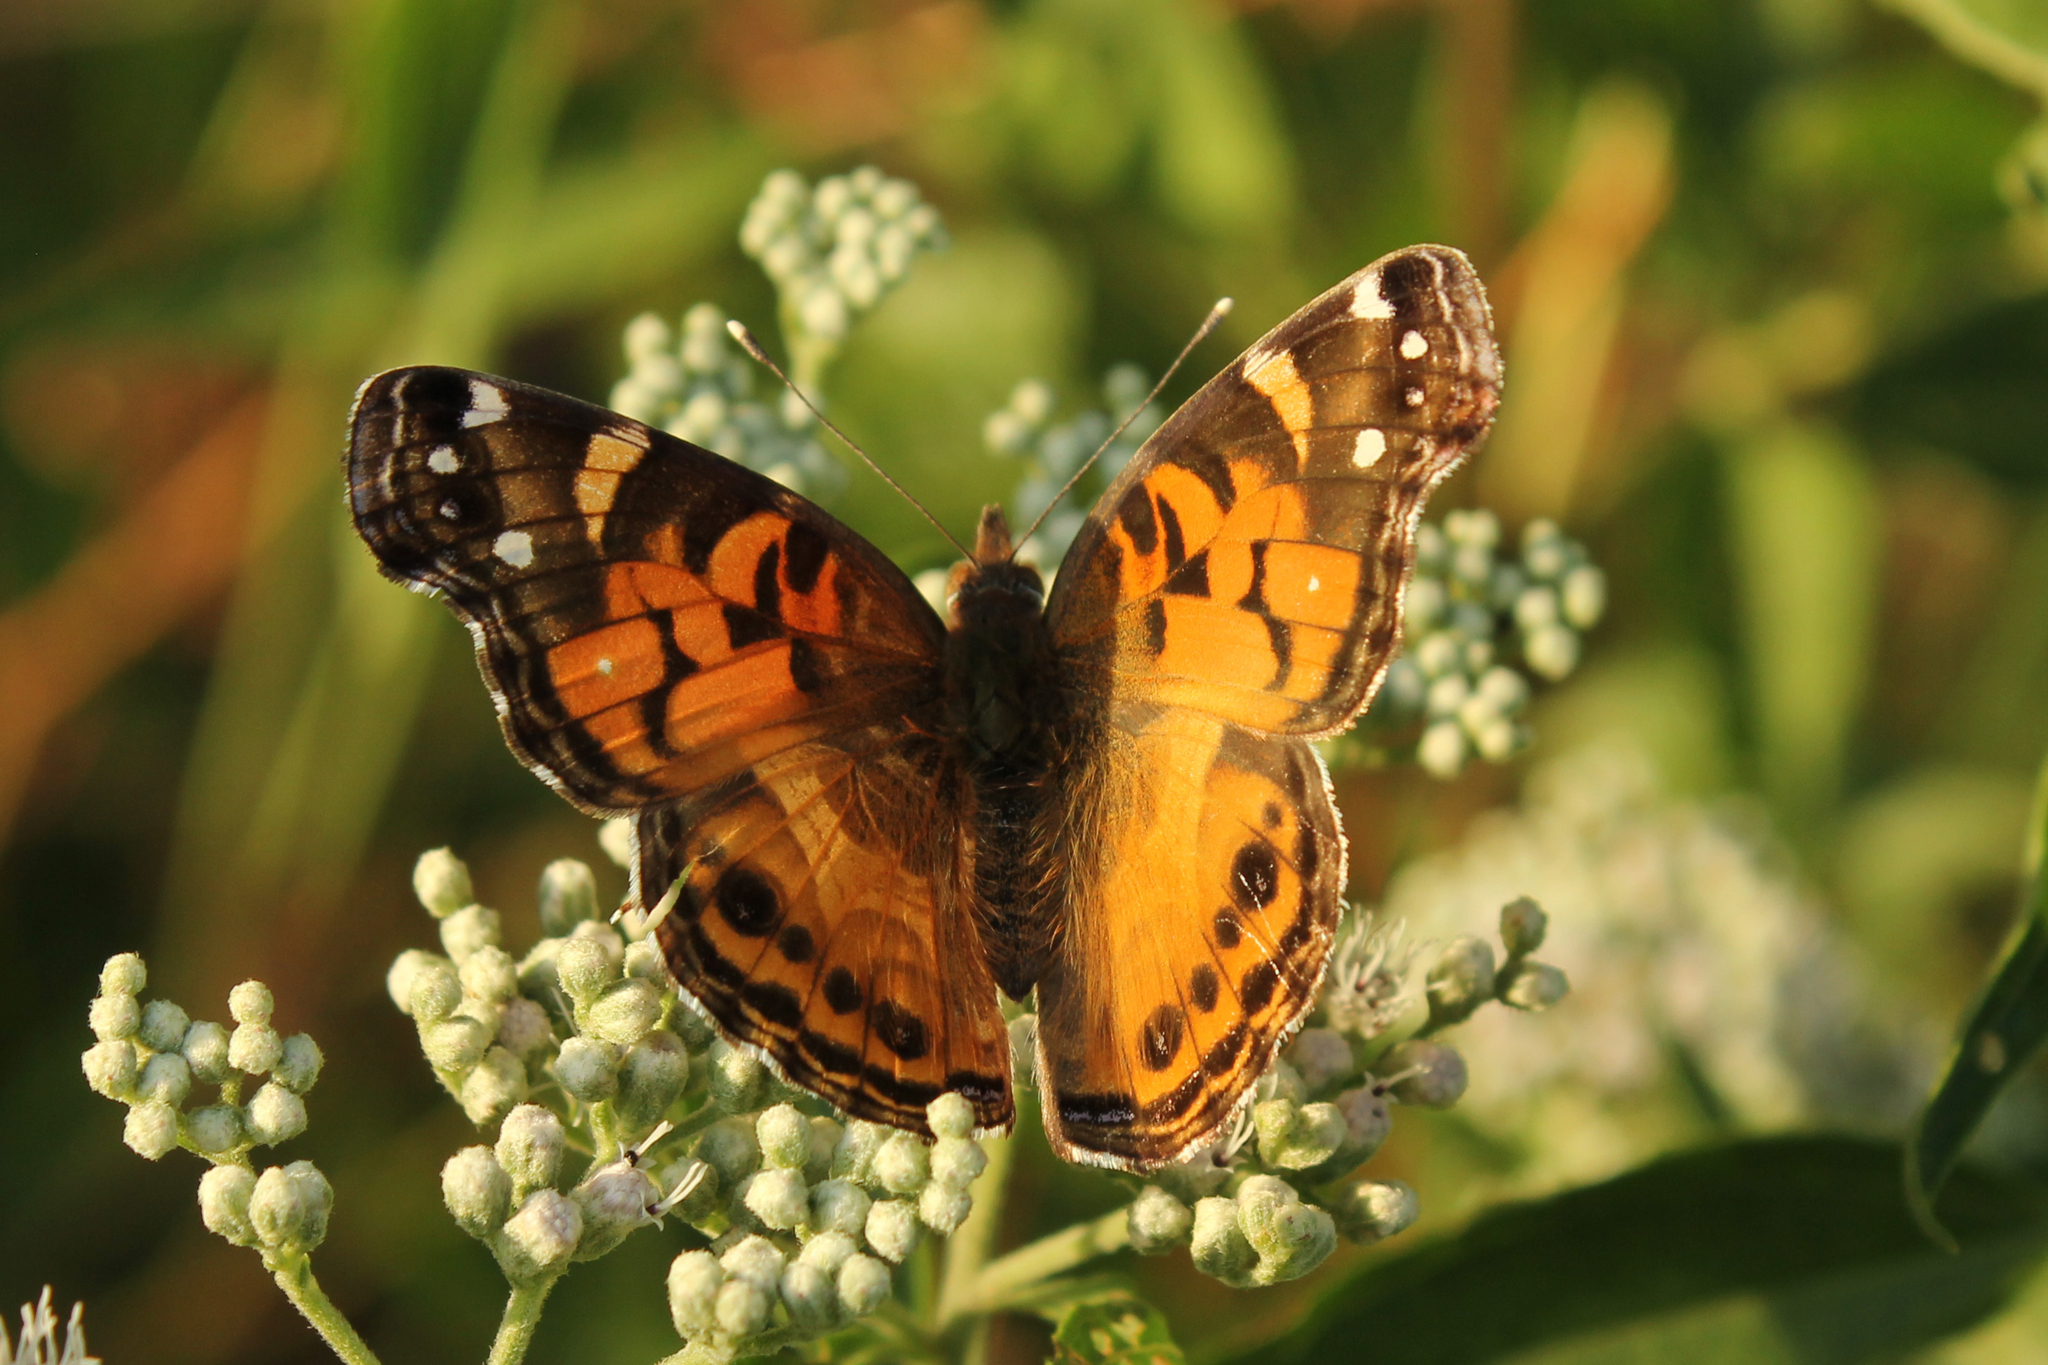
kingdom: Animalia
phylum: Arthropoda
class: Insecta
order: Lepidoptera
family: Nymphalidae
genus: Vanessa
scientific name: Vanessa virginiensis
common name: American lady
